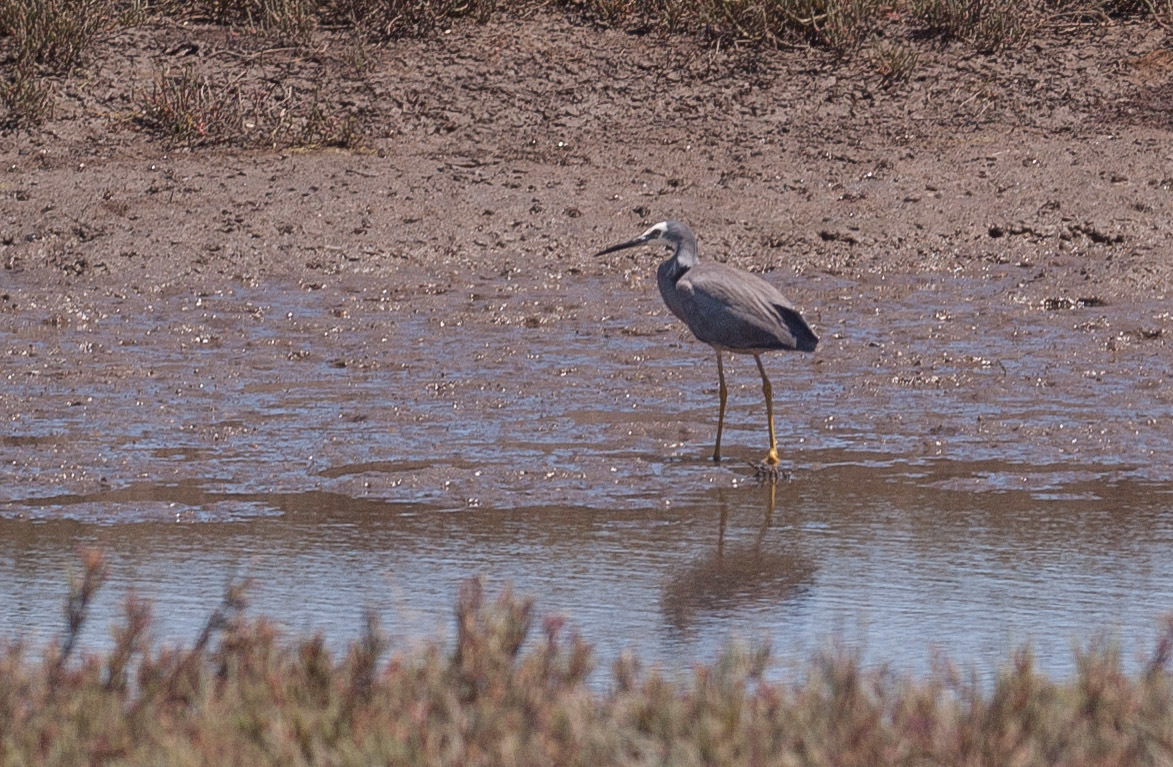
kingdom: Animalia
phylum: Chordata
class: Aves
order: Pelecaniformes
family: Ardeidae
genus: Egretta
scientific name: Egretta novaehollandiae
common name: White-faced heron
